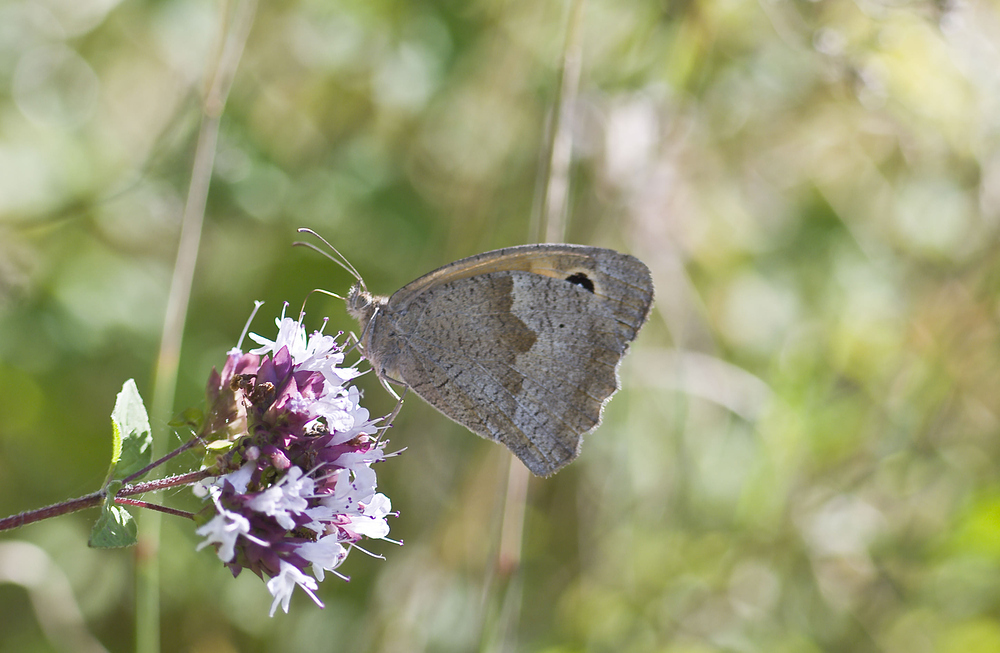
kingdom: Animalia
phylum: Arthropoda
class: Insecta
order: Lepidoptera
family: Nymphalidae
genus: Maniola
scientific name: Maniola jurtina
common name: Meadow brown
